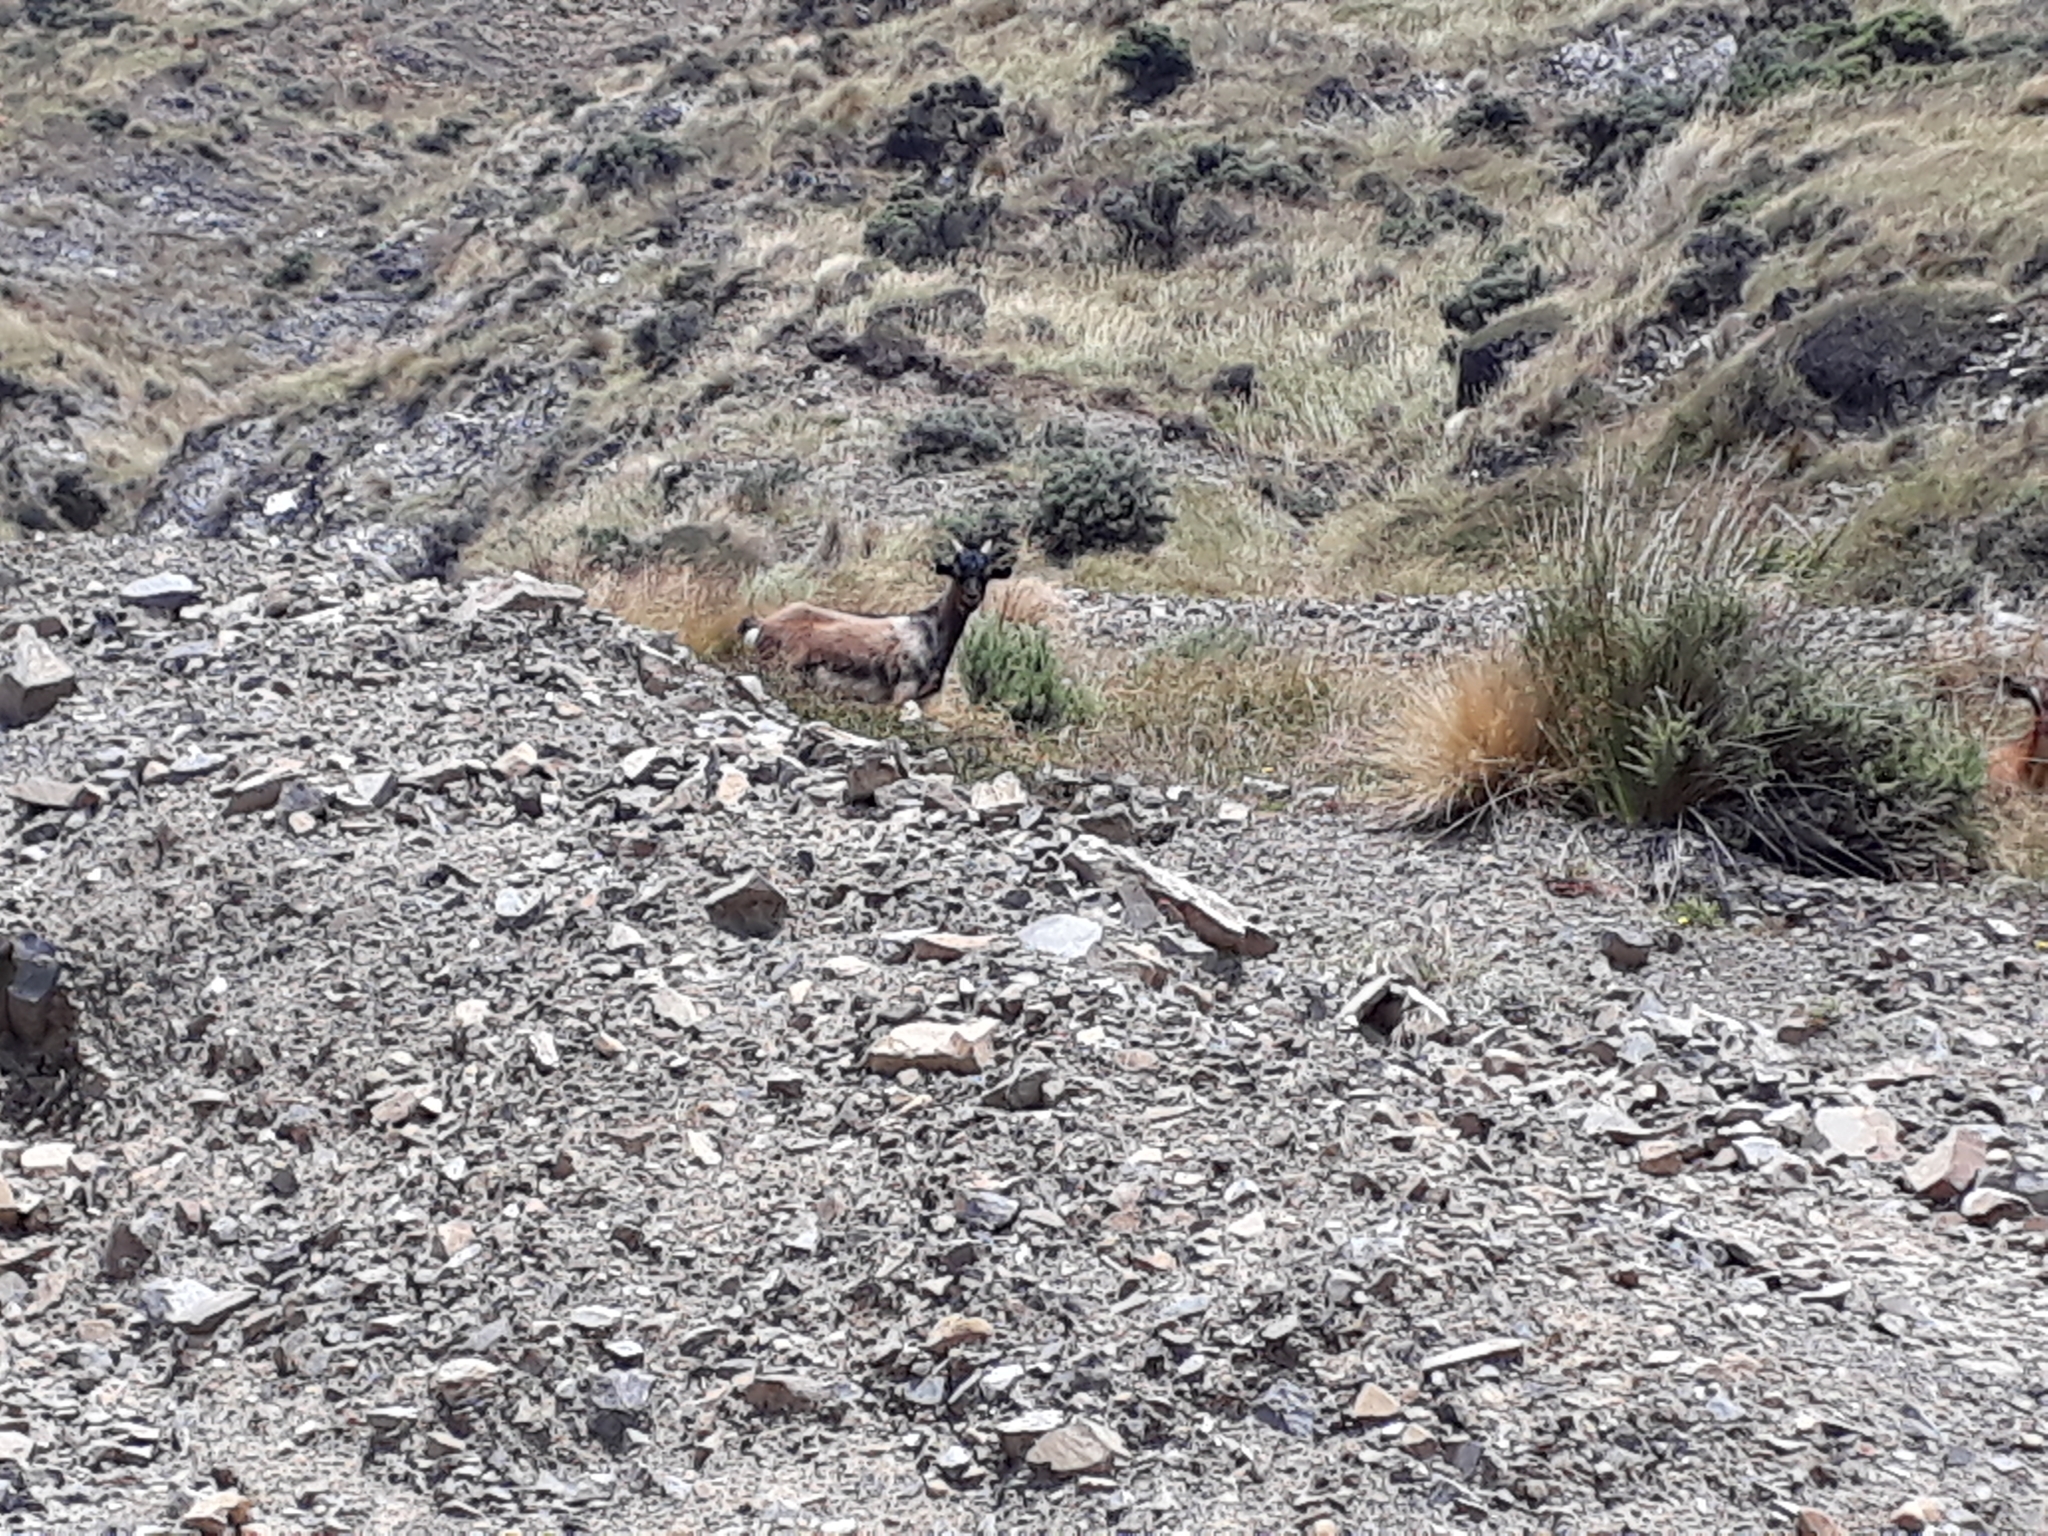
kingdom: Animalia
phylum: Chordata
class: Mammalia
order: Artiodactyla
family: Bovidae
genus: Capra
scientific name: Capra hircus
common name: Domestic goat
